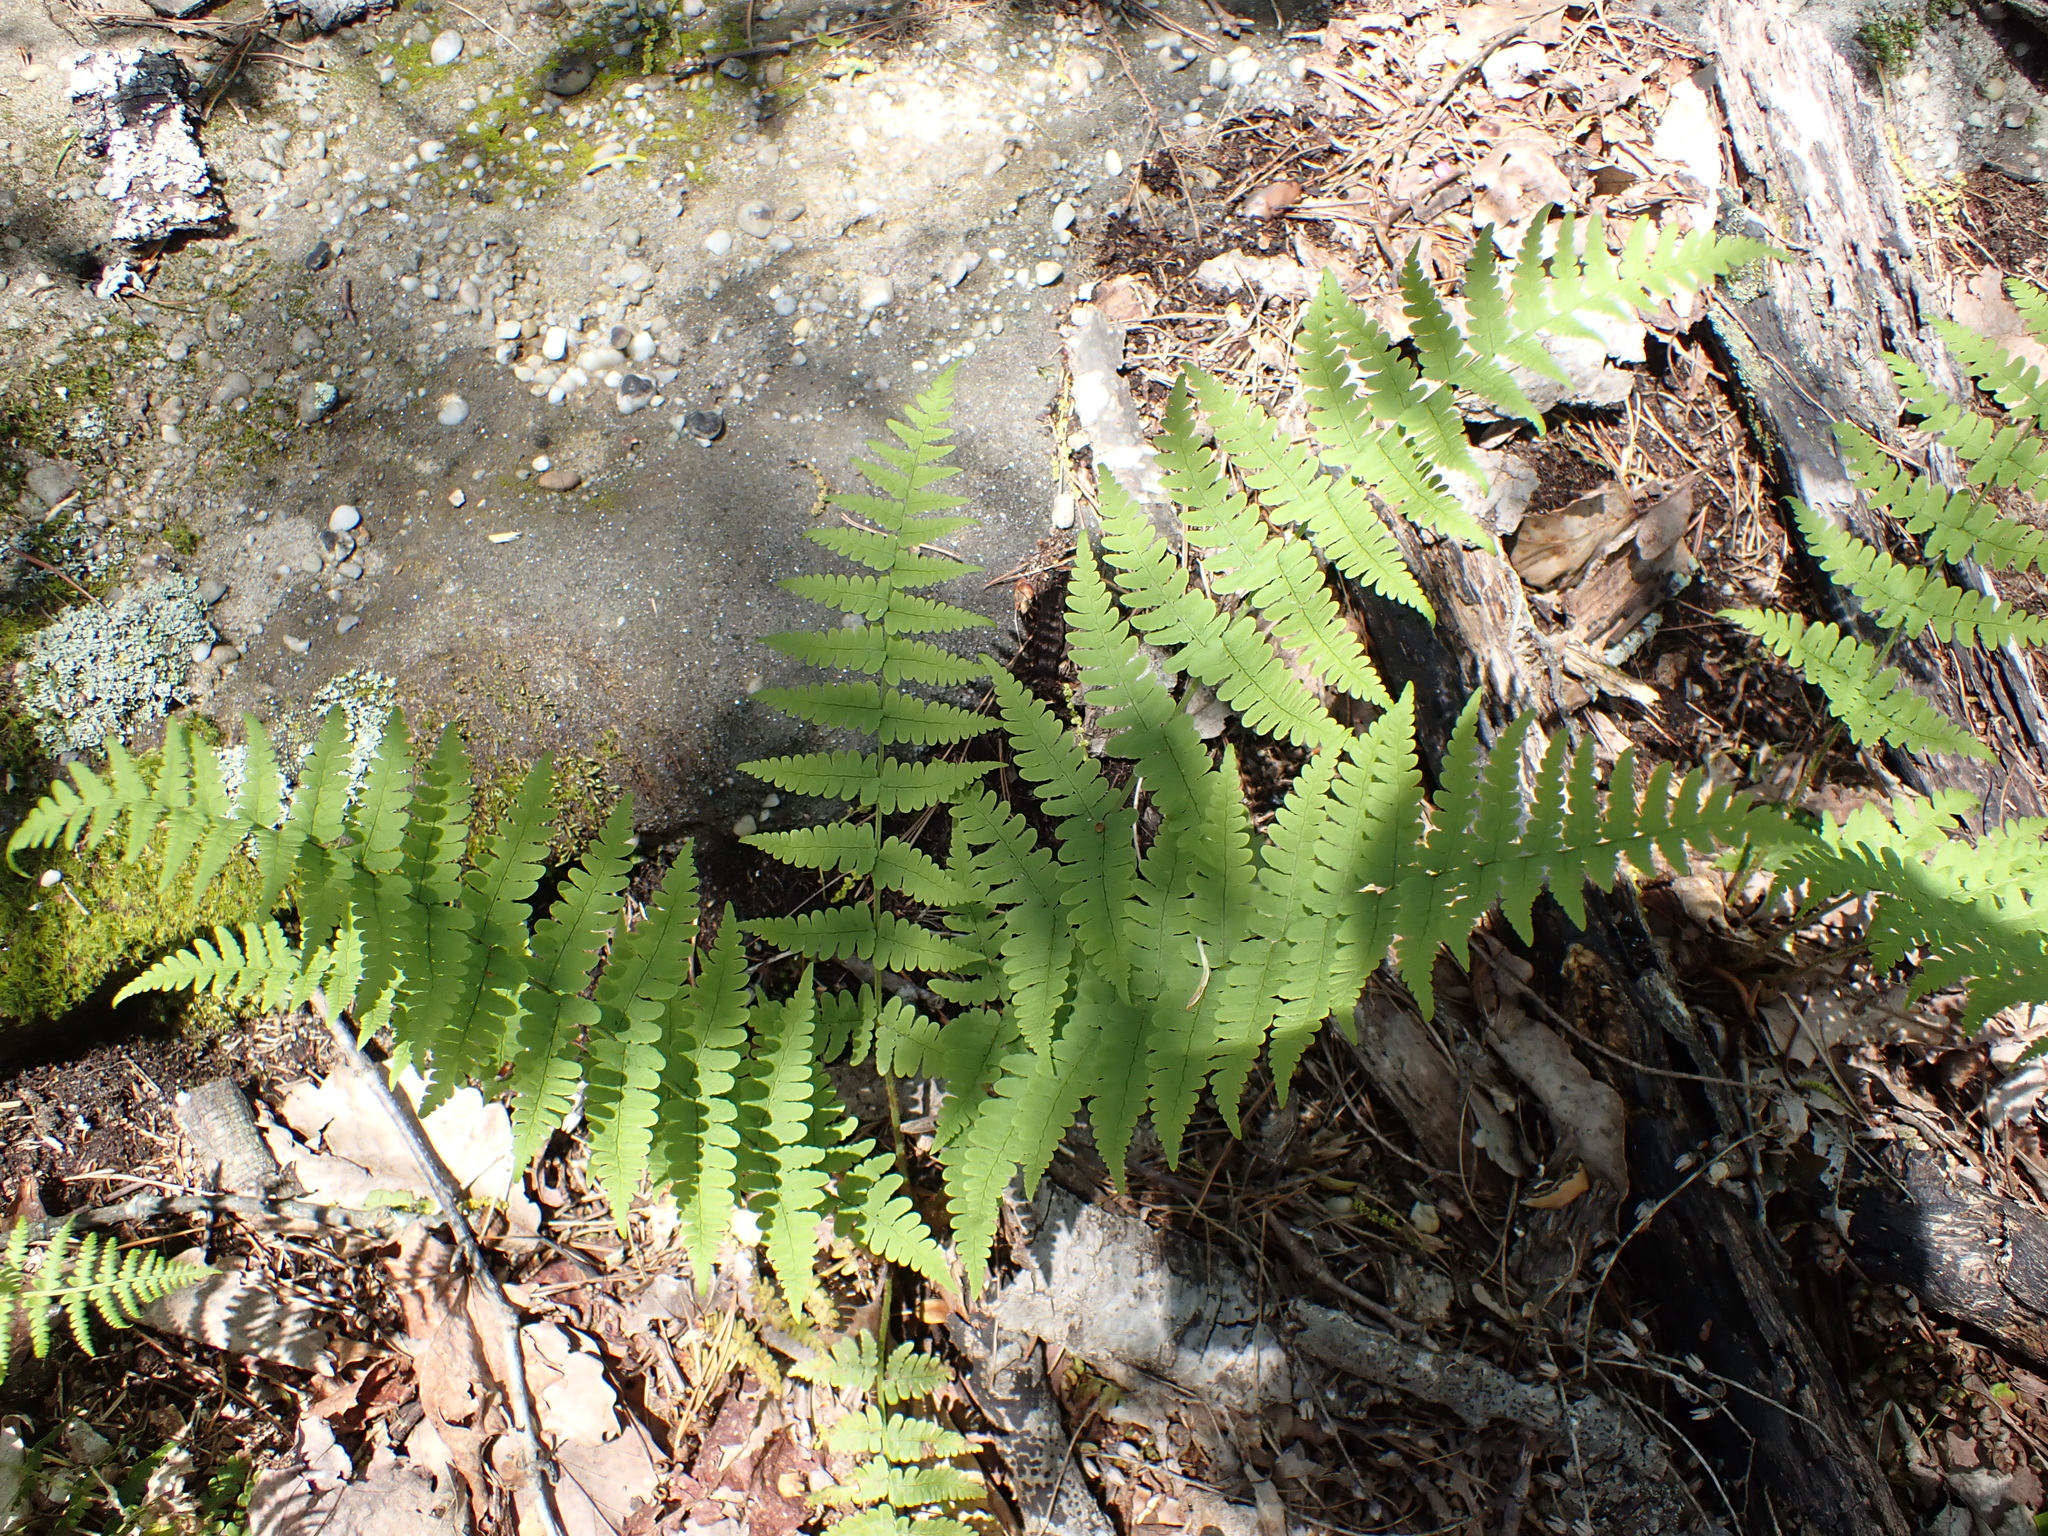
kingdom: Plantae
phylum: Tracheophyta
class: Polypodiopsida
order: Polypodiales
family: Dryopteridaceae
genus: Dryopteris
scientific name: Dryopteris marginalis
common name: Marginal wood fern
